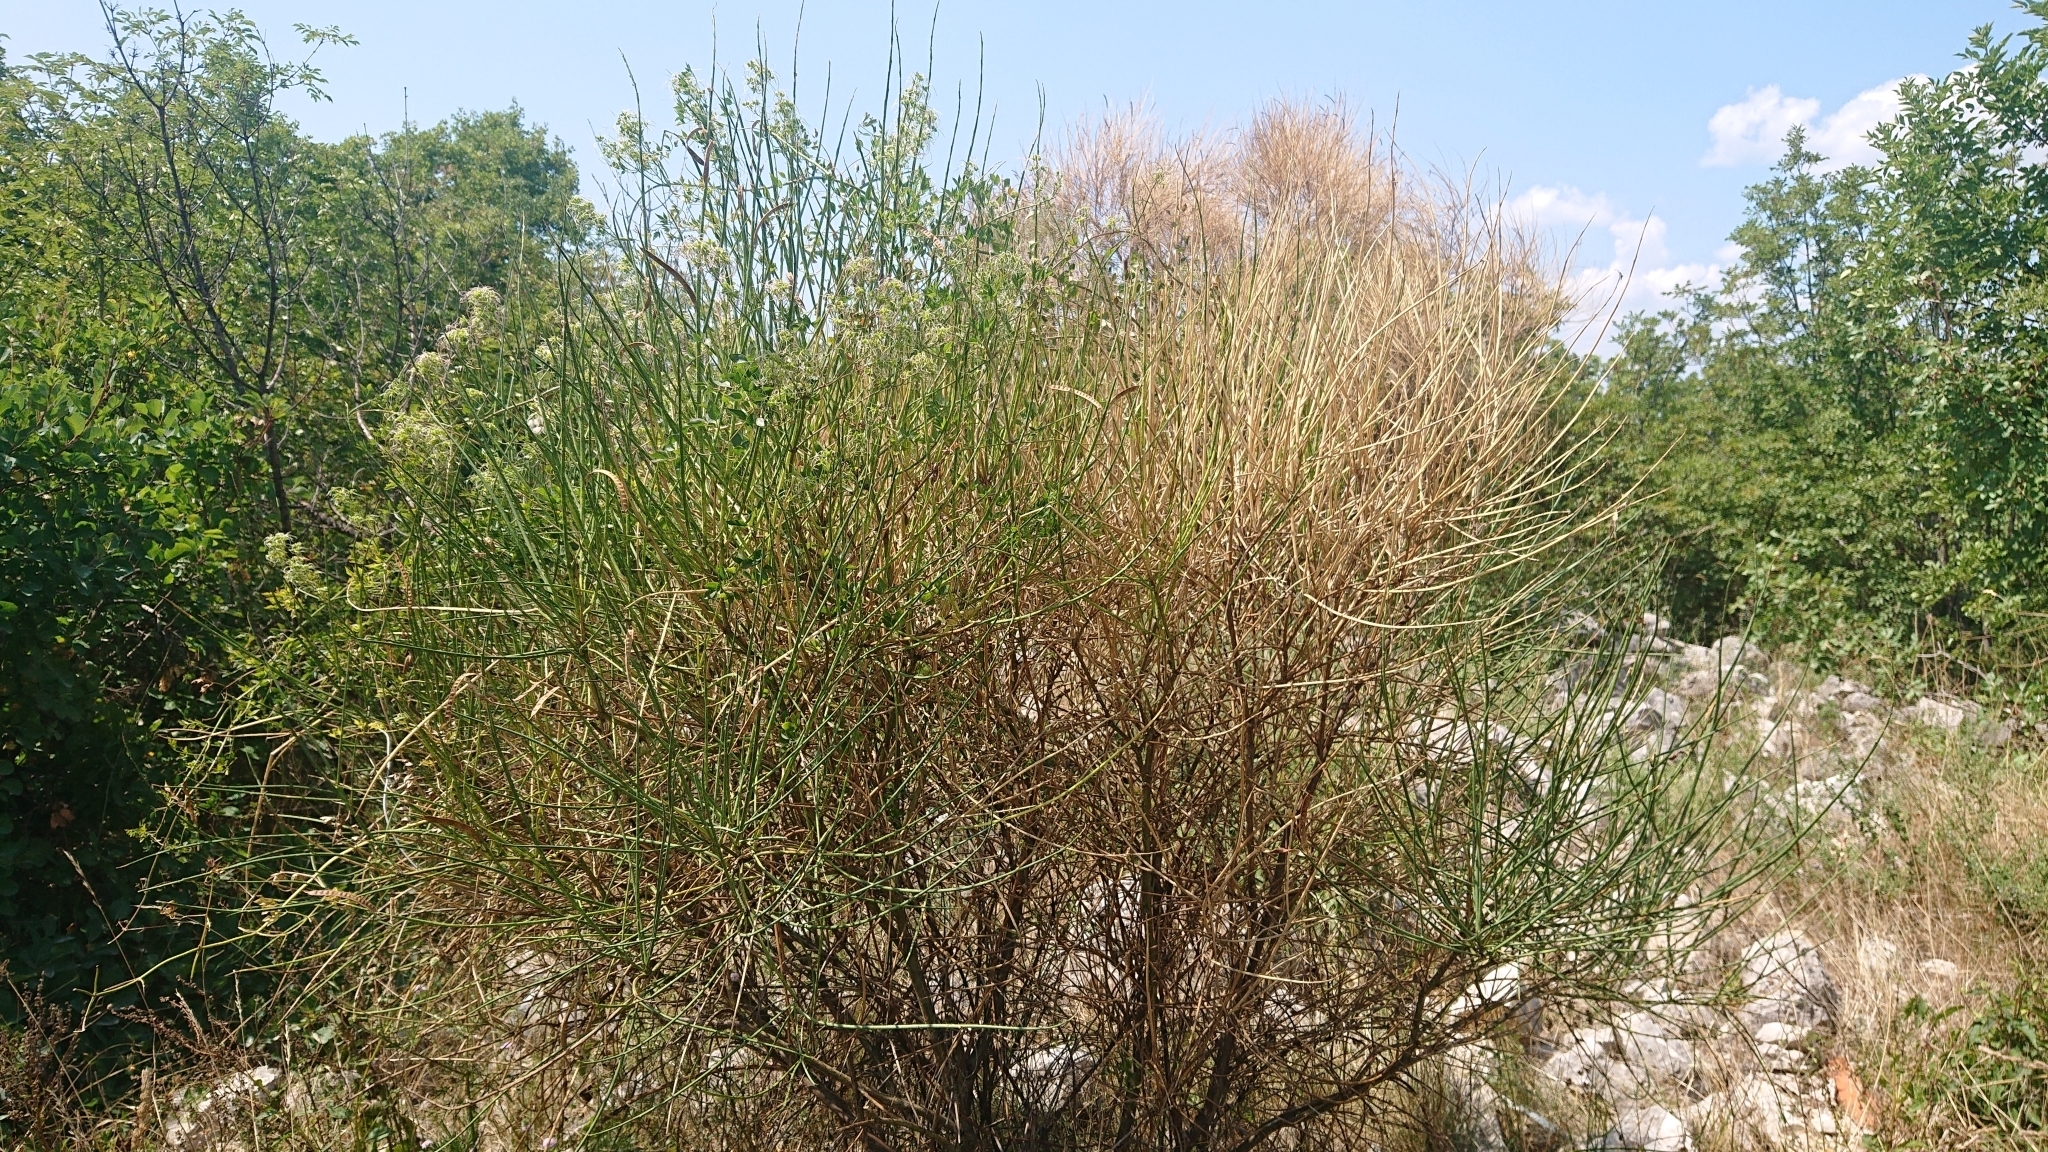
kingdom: Plantae
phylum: Tracheophyta
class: Magnoliopsida
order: Ranunculales
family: Ranunculaceae
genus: Clematis
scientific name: Clematis flammula
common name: Virgin's-bower
